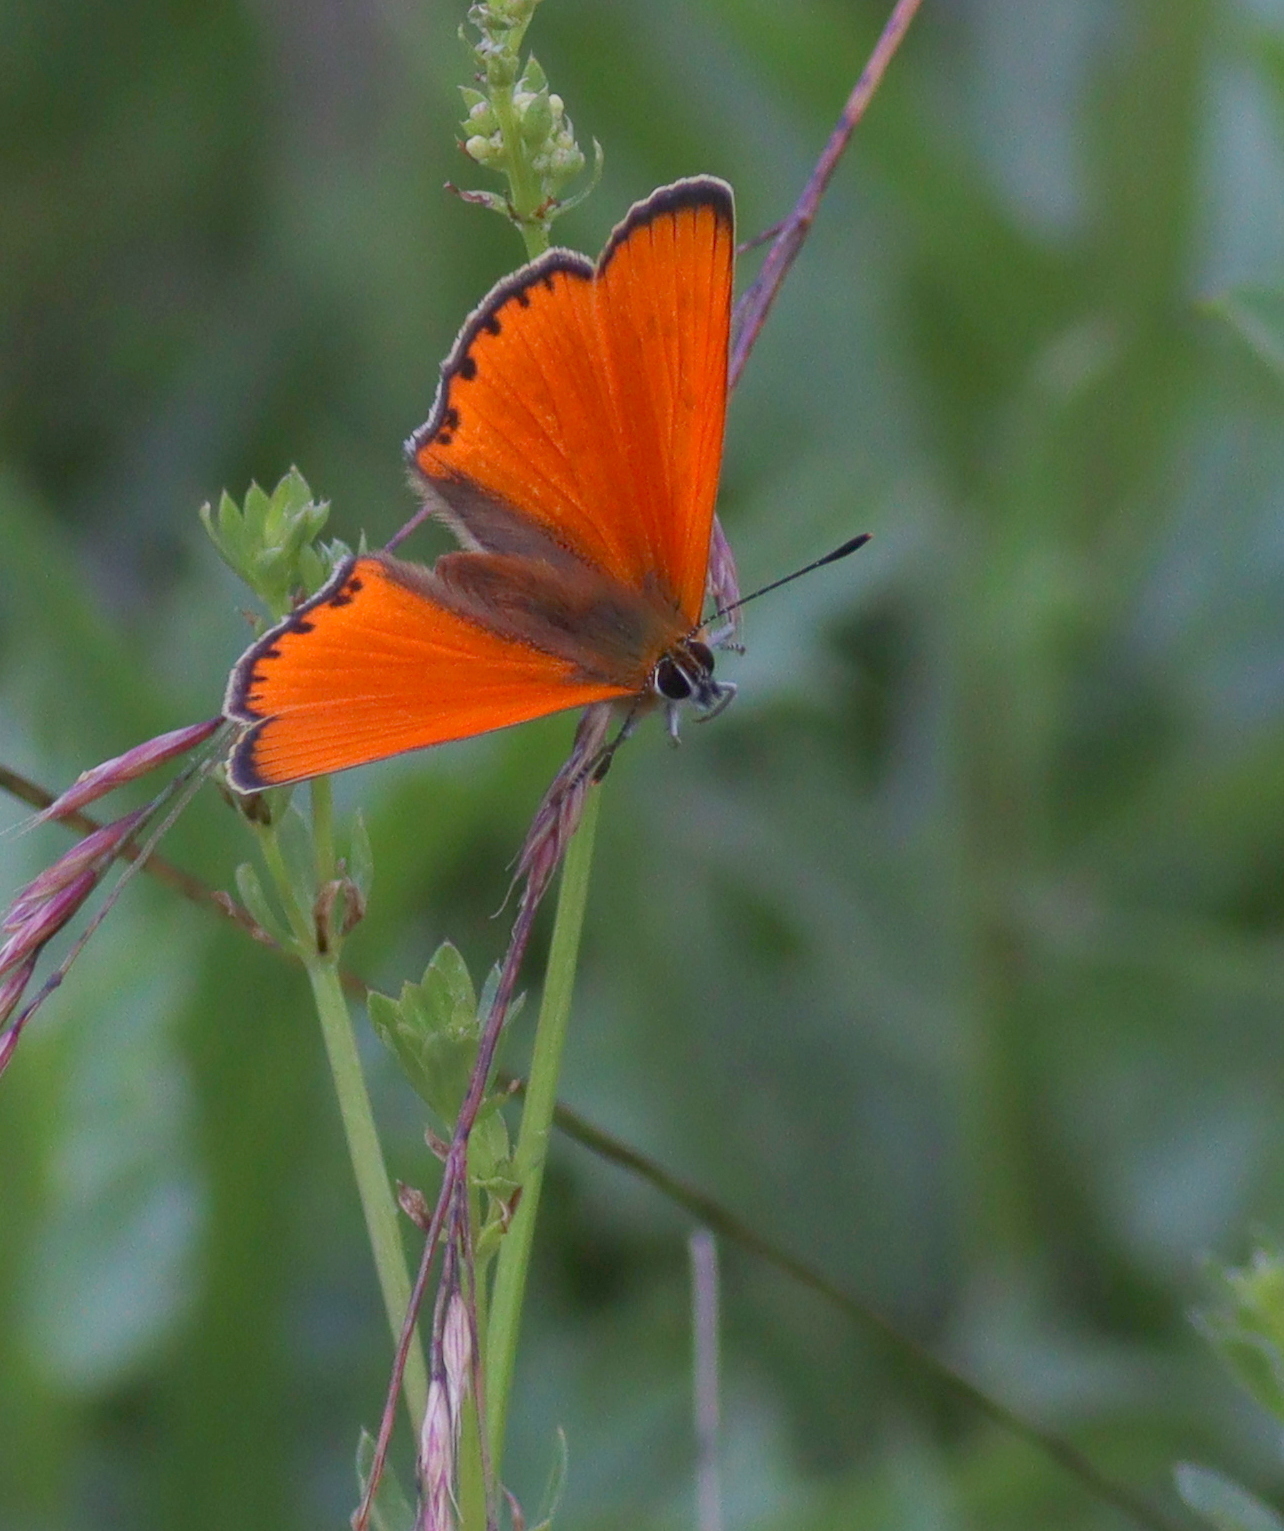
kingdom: Animalia
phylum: Arthropoda
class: Insecta
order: Lepidoptera
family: Lycaenidae
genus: Lycaena
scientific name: Lycaena virgaureae
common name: Scarce copper
